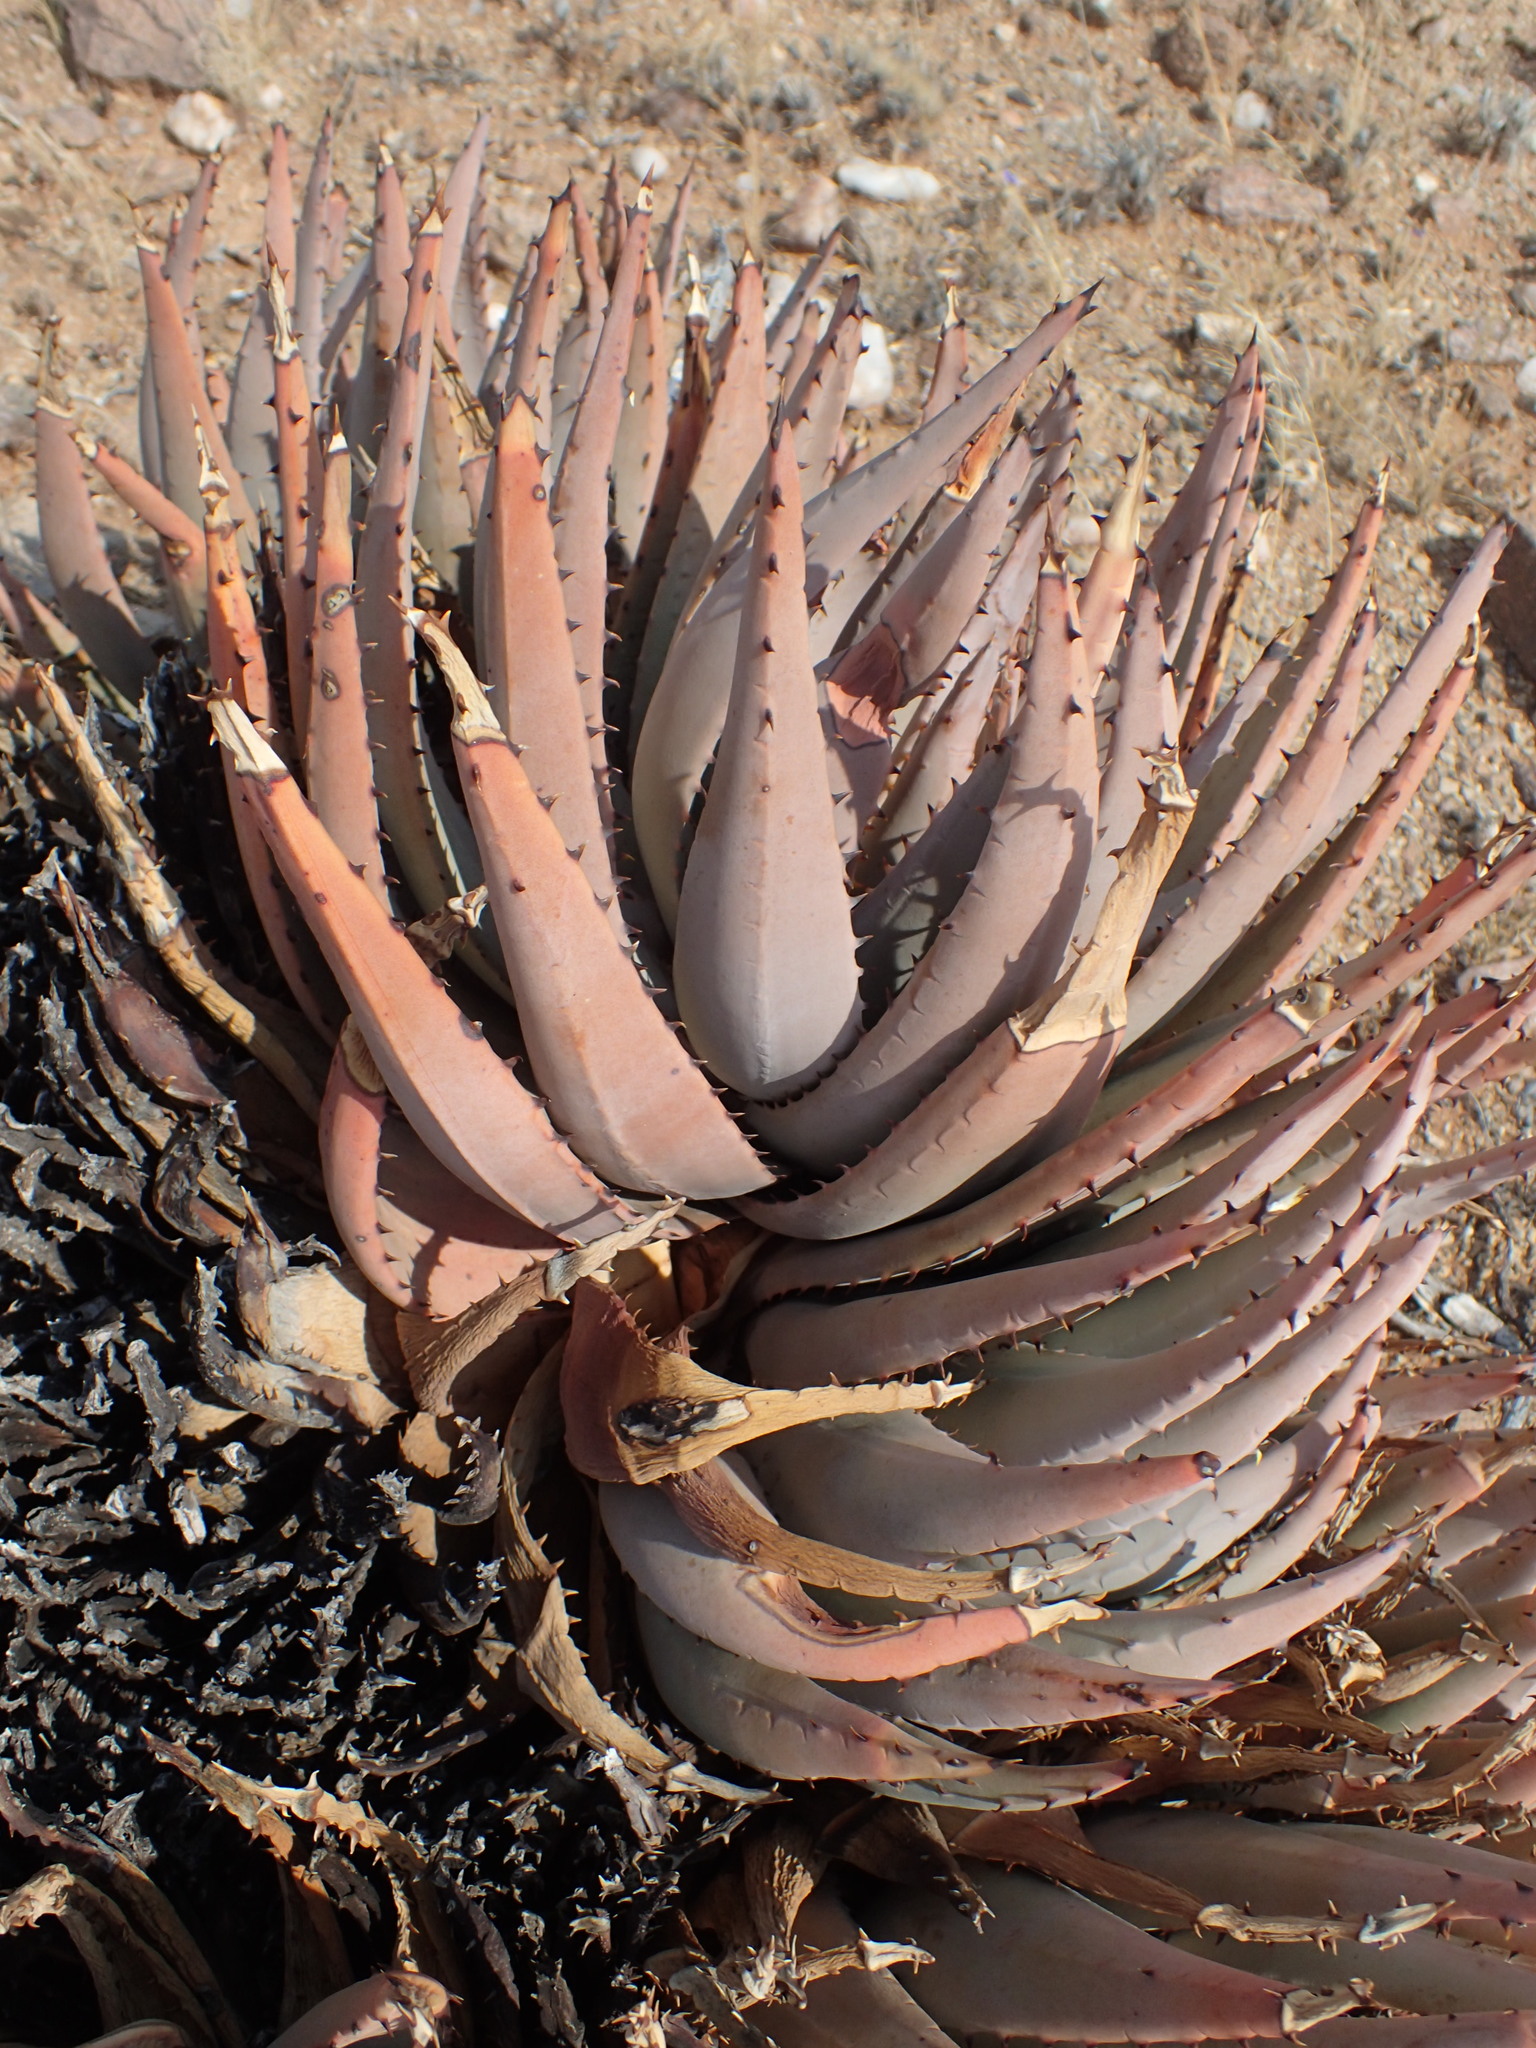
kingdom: Plantae
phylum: Tracheophyta
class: Liliopsida
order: Asparagales
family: Asphodelaceae
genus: Aloe
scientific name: Aloe claviflora
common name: Cannon aloe
